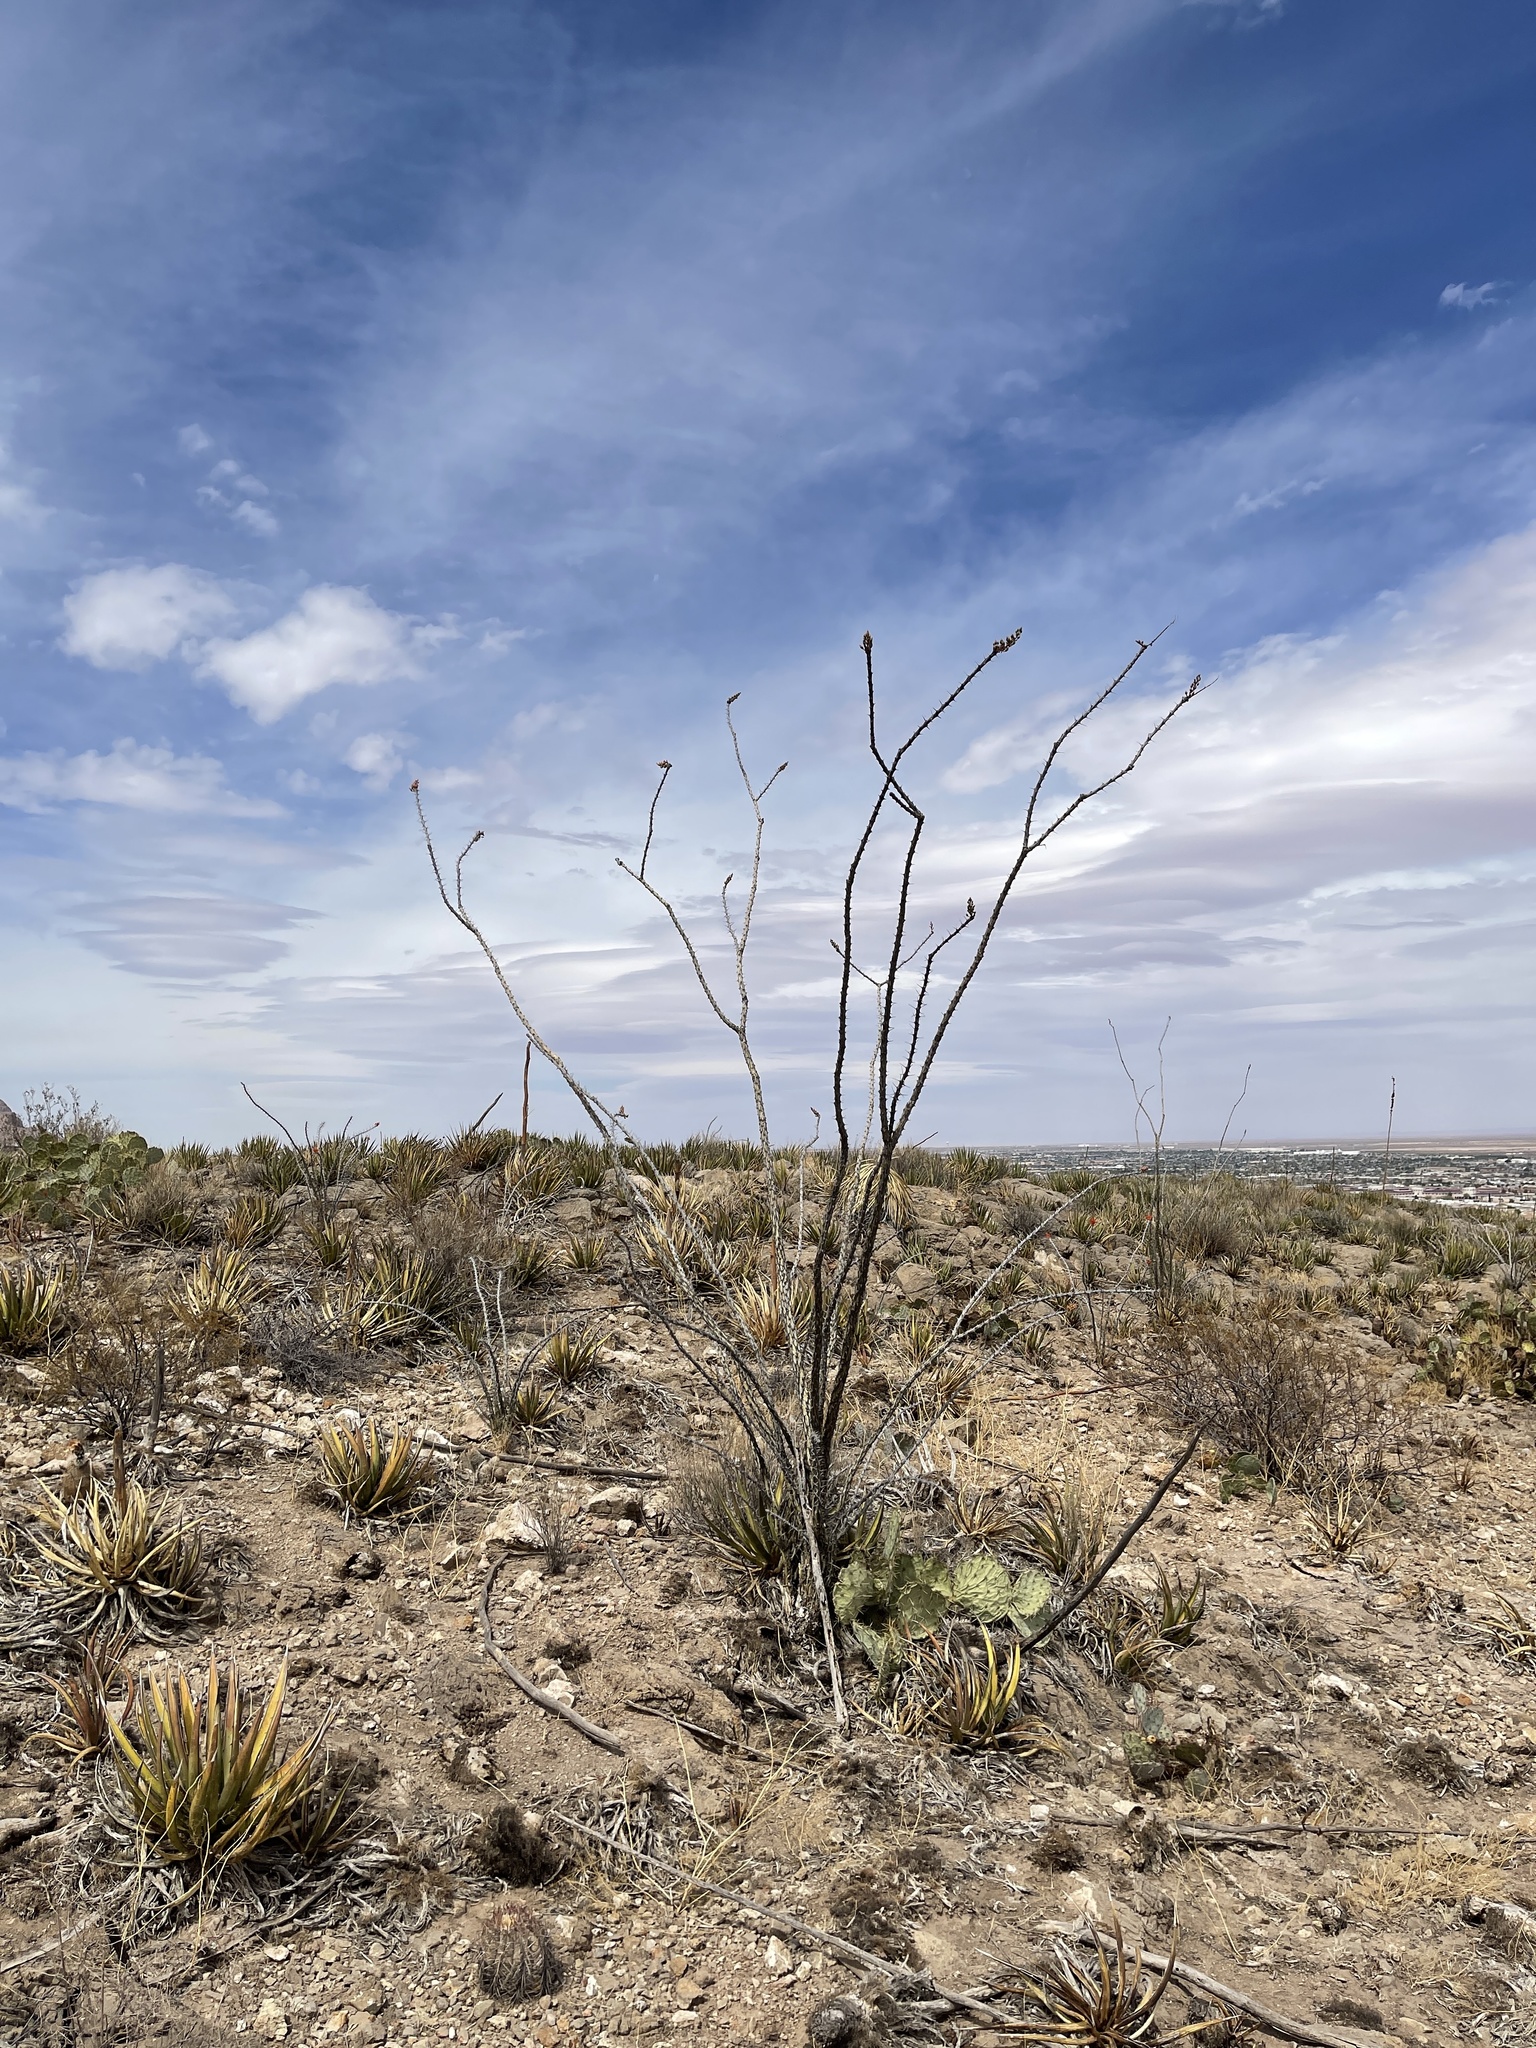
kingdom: Plantae
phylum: Tracheophyta
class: Magnoliopsida
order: Ericales
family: Fouquieriaceae
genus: Fouquieria
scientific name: Fouquieria splendens
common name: Vine-cactus
